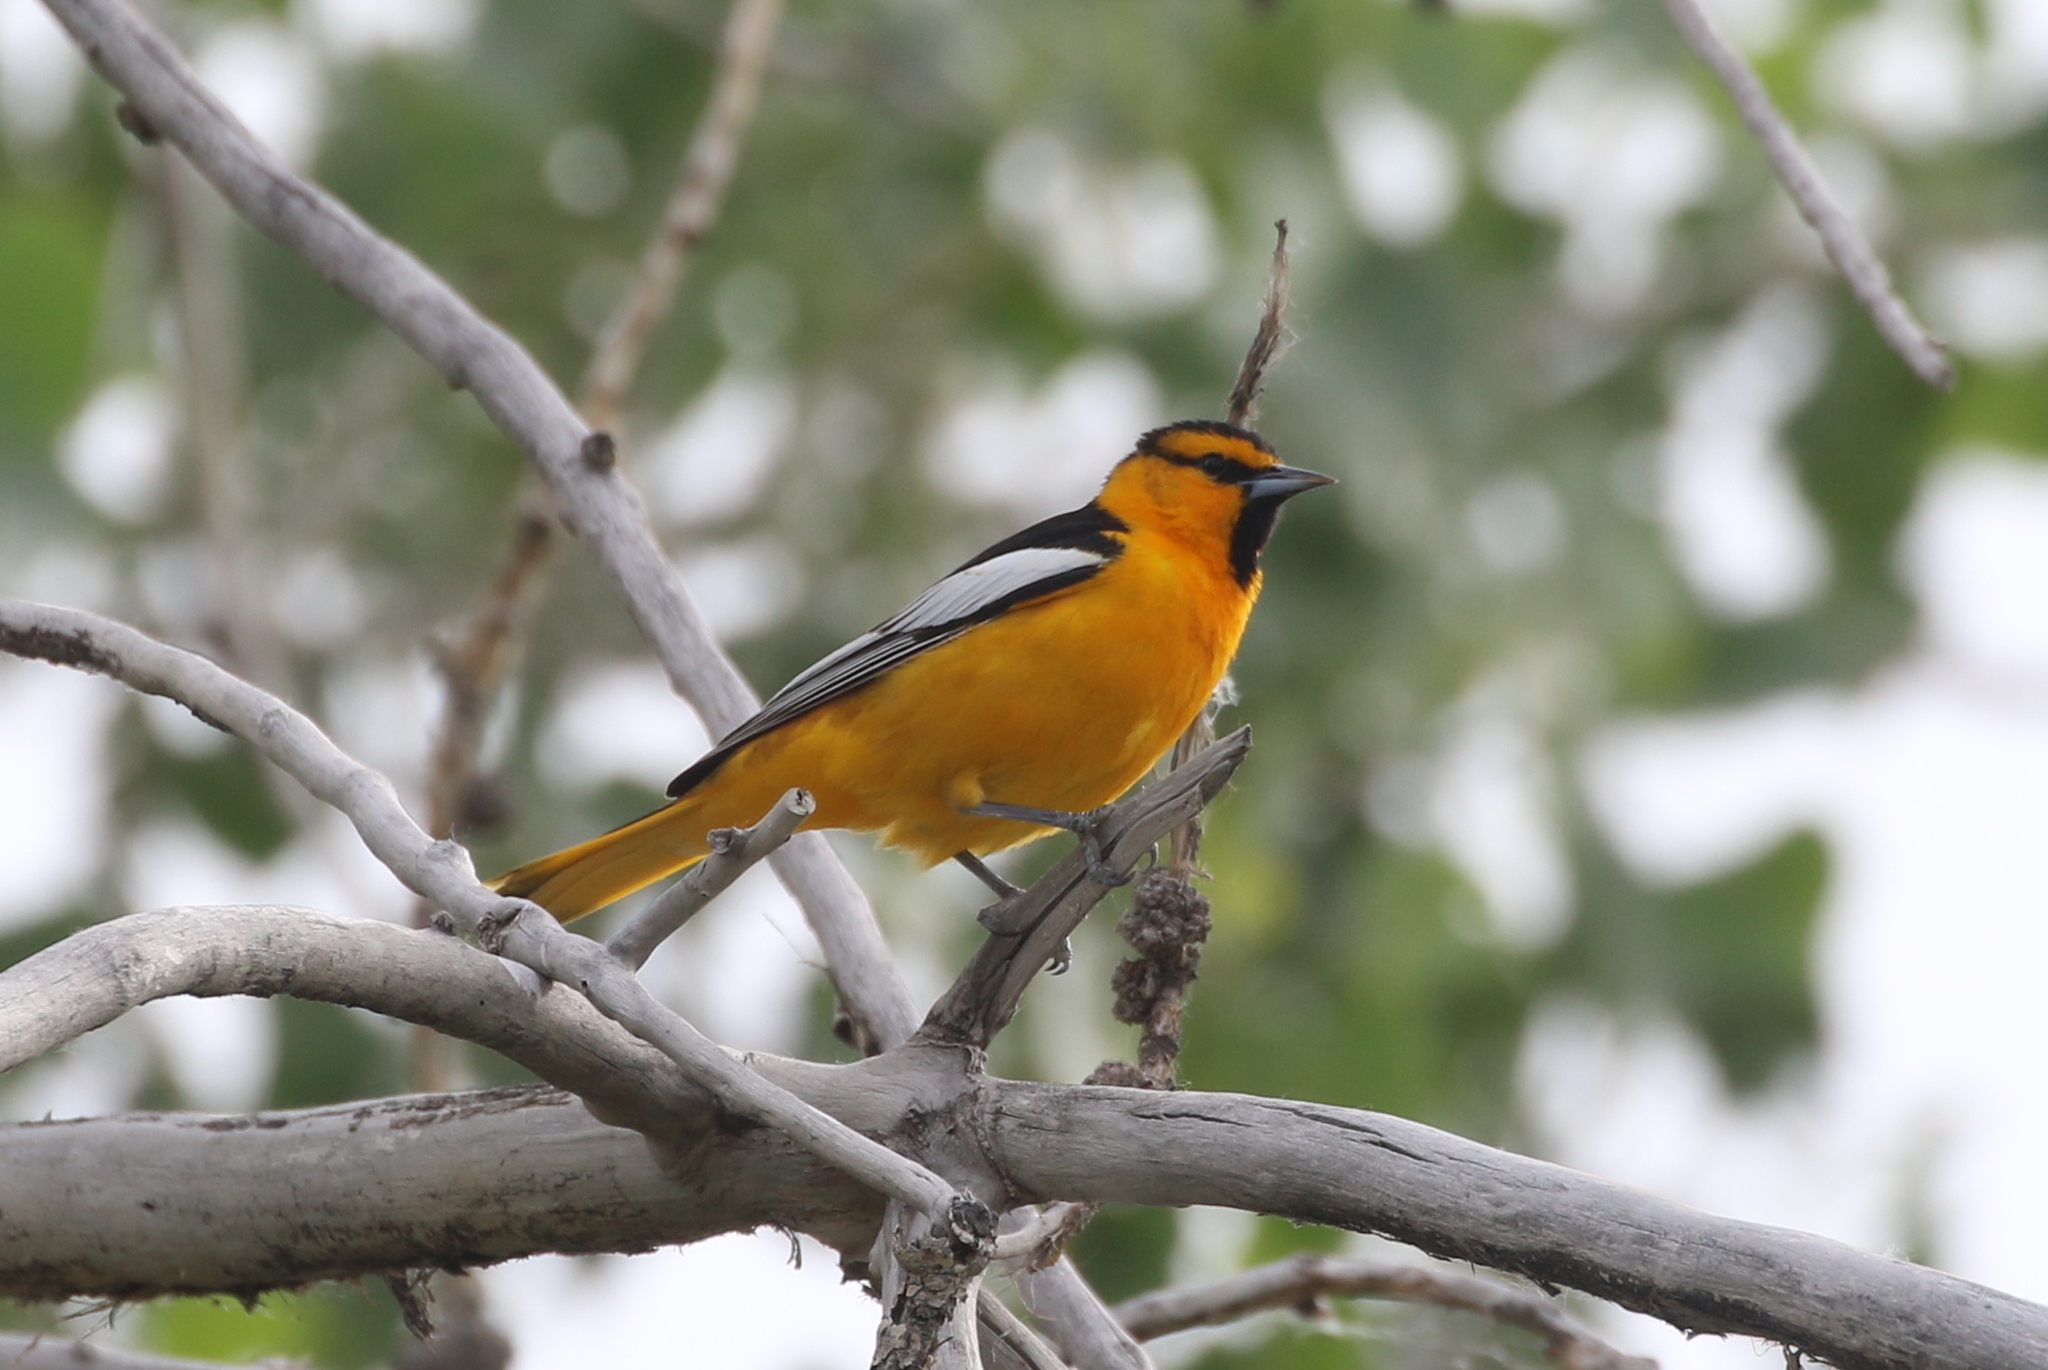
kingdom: Animalia
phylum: Chordata
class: Aves
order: Passeriformes
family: Icteridae
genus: Icterus
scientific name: Icterus bullockii
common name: Bullock's oriole
